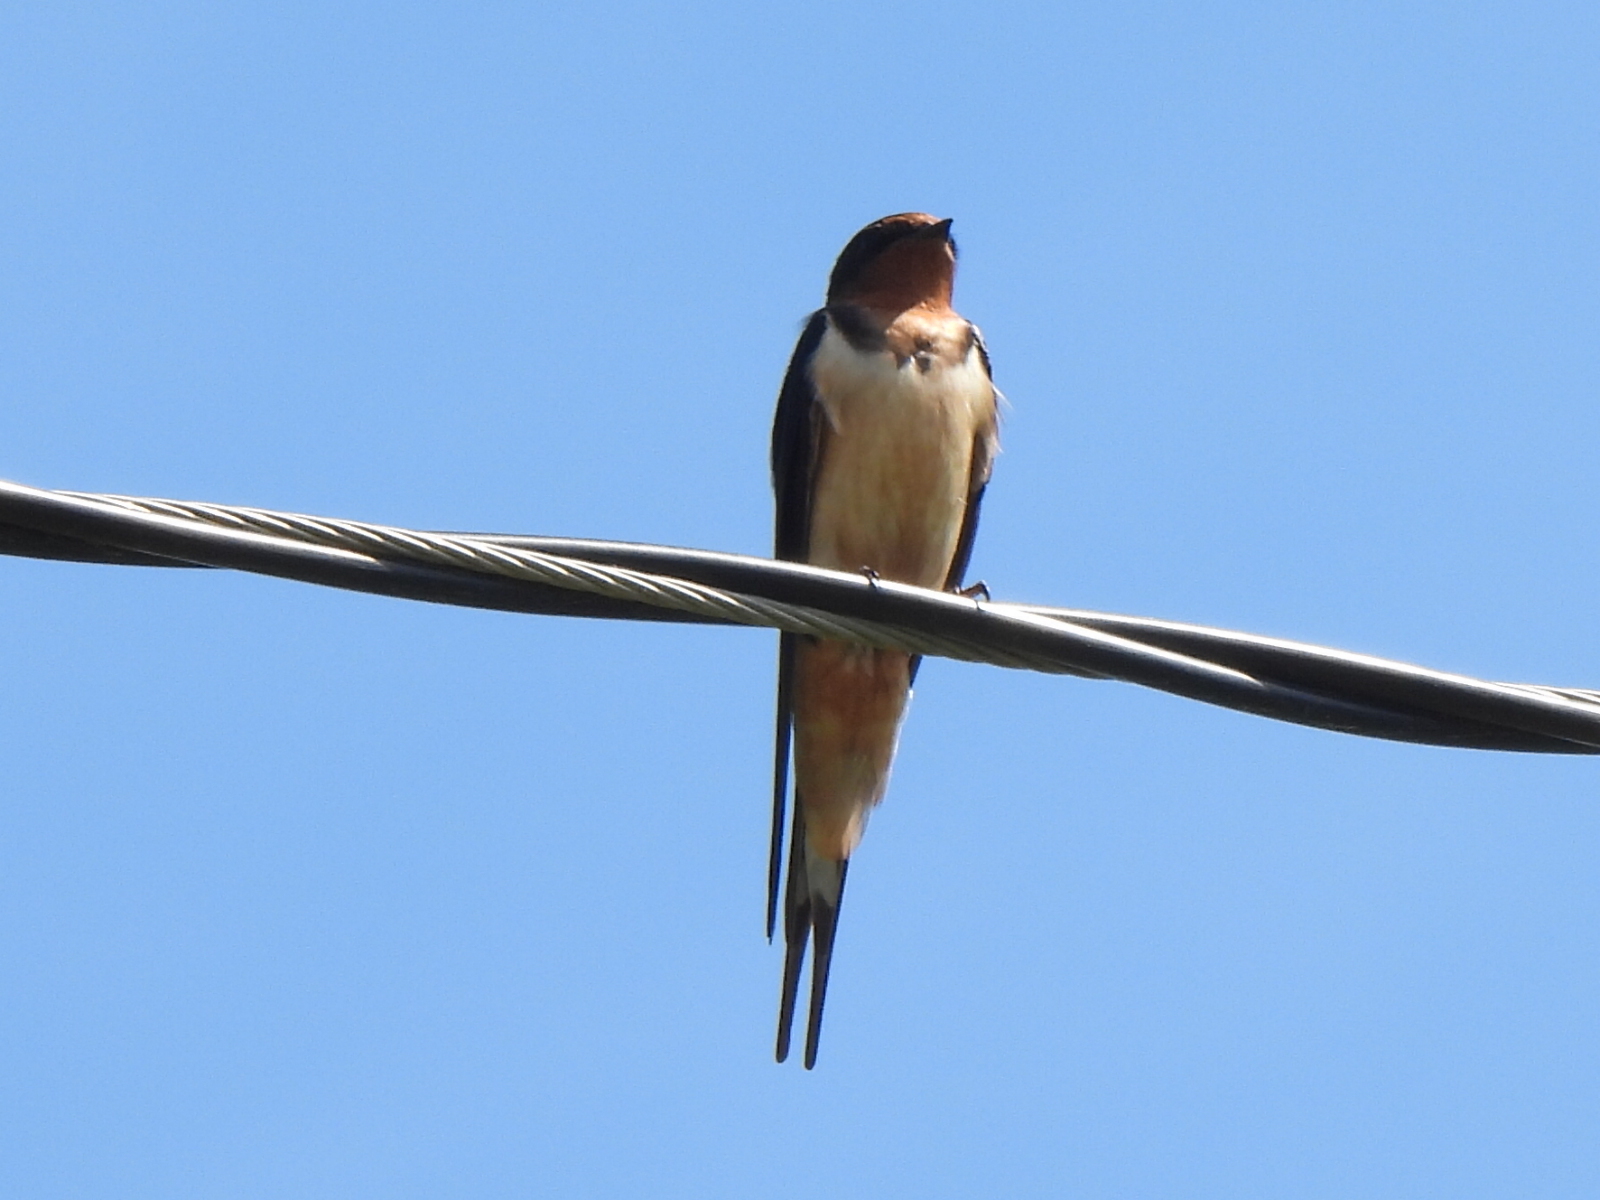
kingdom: Animalia
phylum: Chordata
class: Aves
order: Passeriformes
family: Hirundinidae
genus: Hirundo
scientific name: Hirundo rustica
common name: Barn swallow
